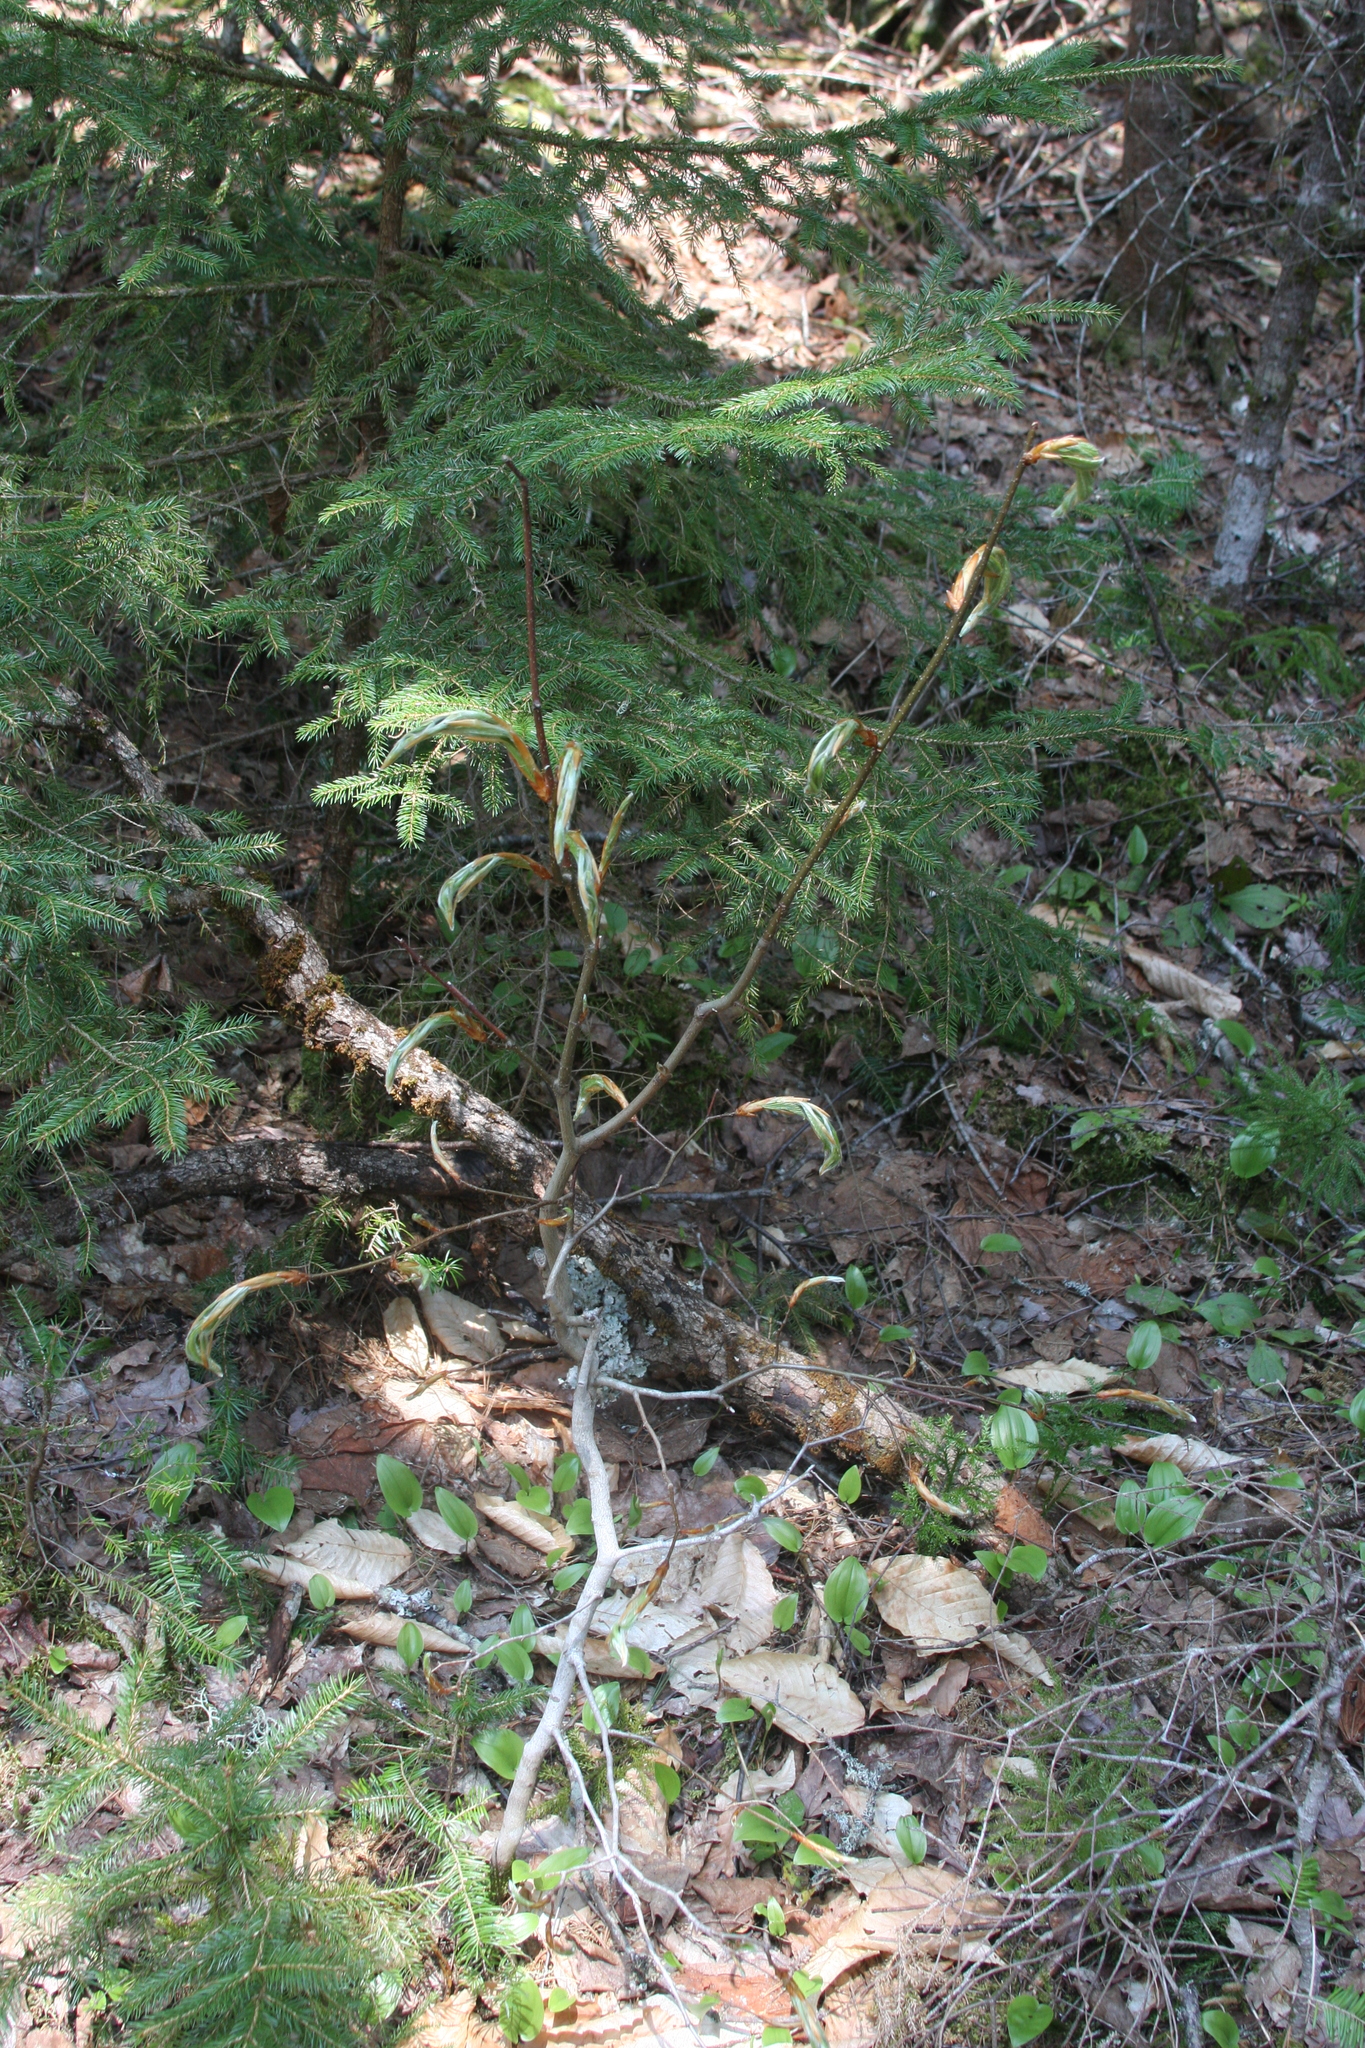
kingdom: Plantae
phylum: Tracheophyta
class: Magnoliopsida
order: Fagales
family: Fagaceae
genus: Fagus
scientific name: Fagus grandifolia
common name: American beech
